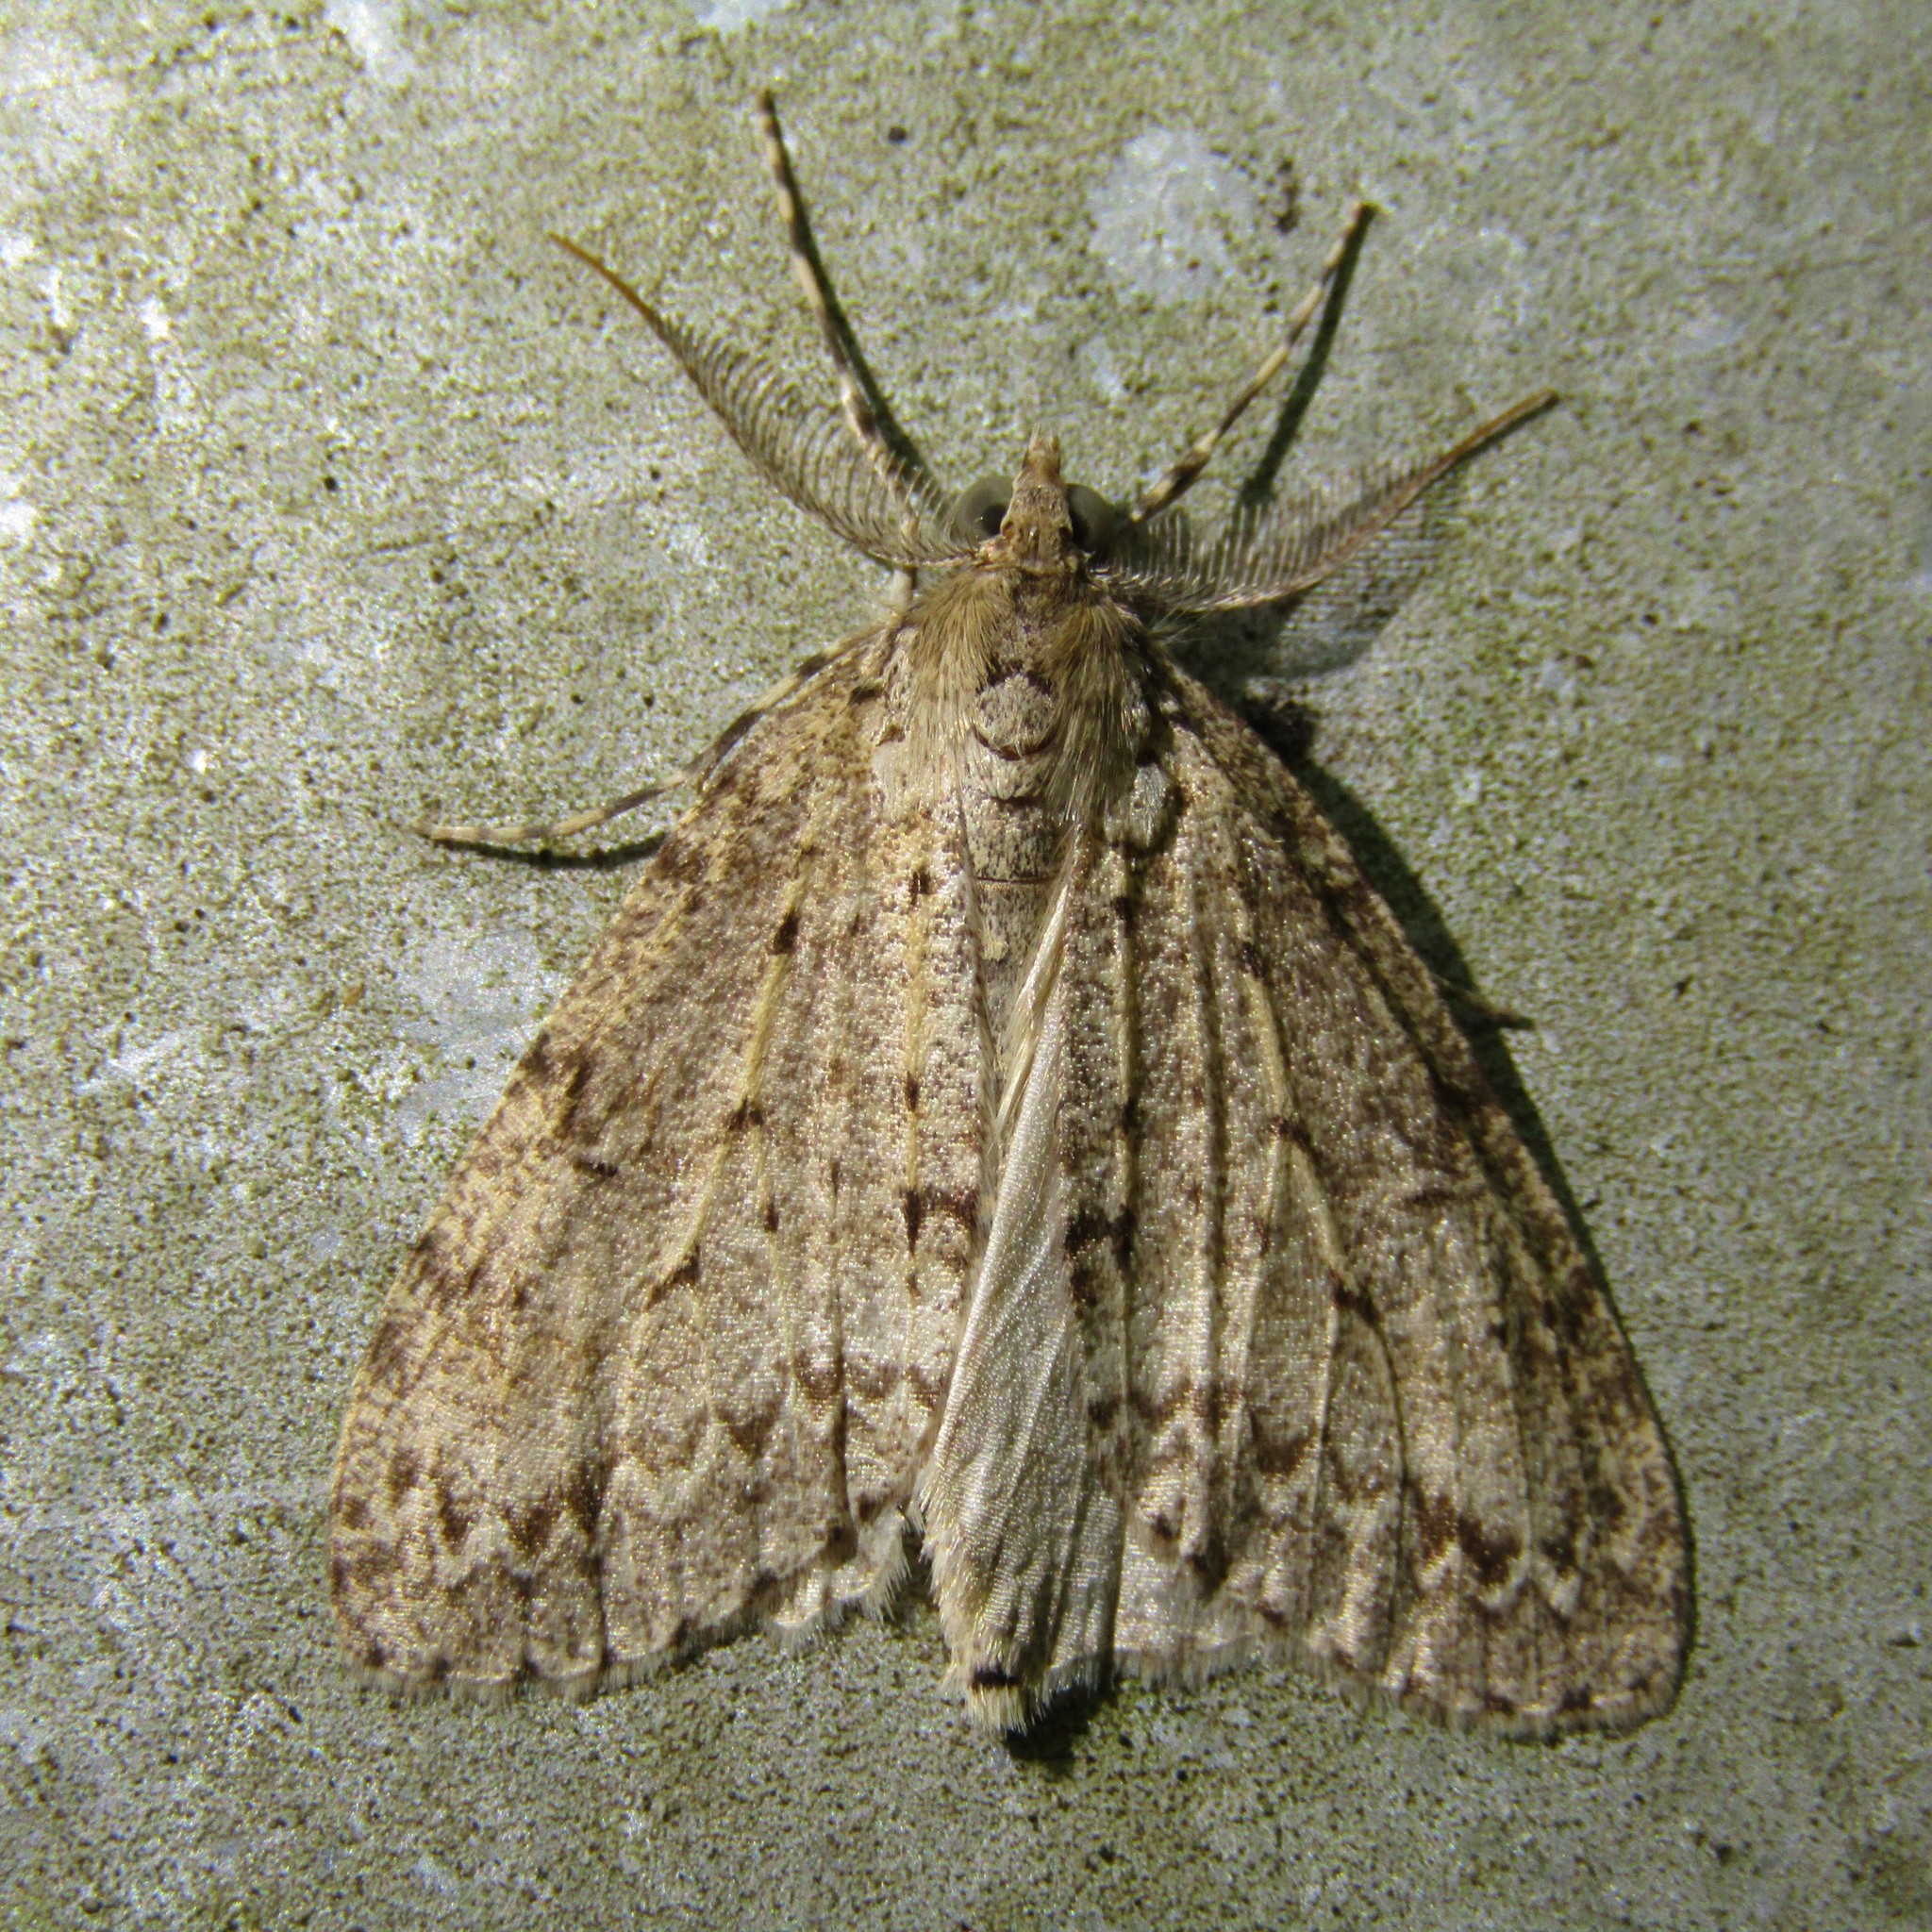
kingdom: Animalia
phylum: Arthropoda
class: Insecta
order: Lepidoptera
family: Geometridae
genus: Pseudocoremia
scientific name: Pseudocoremia fenerata
